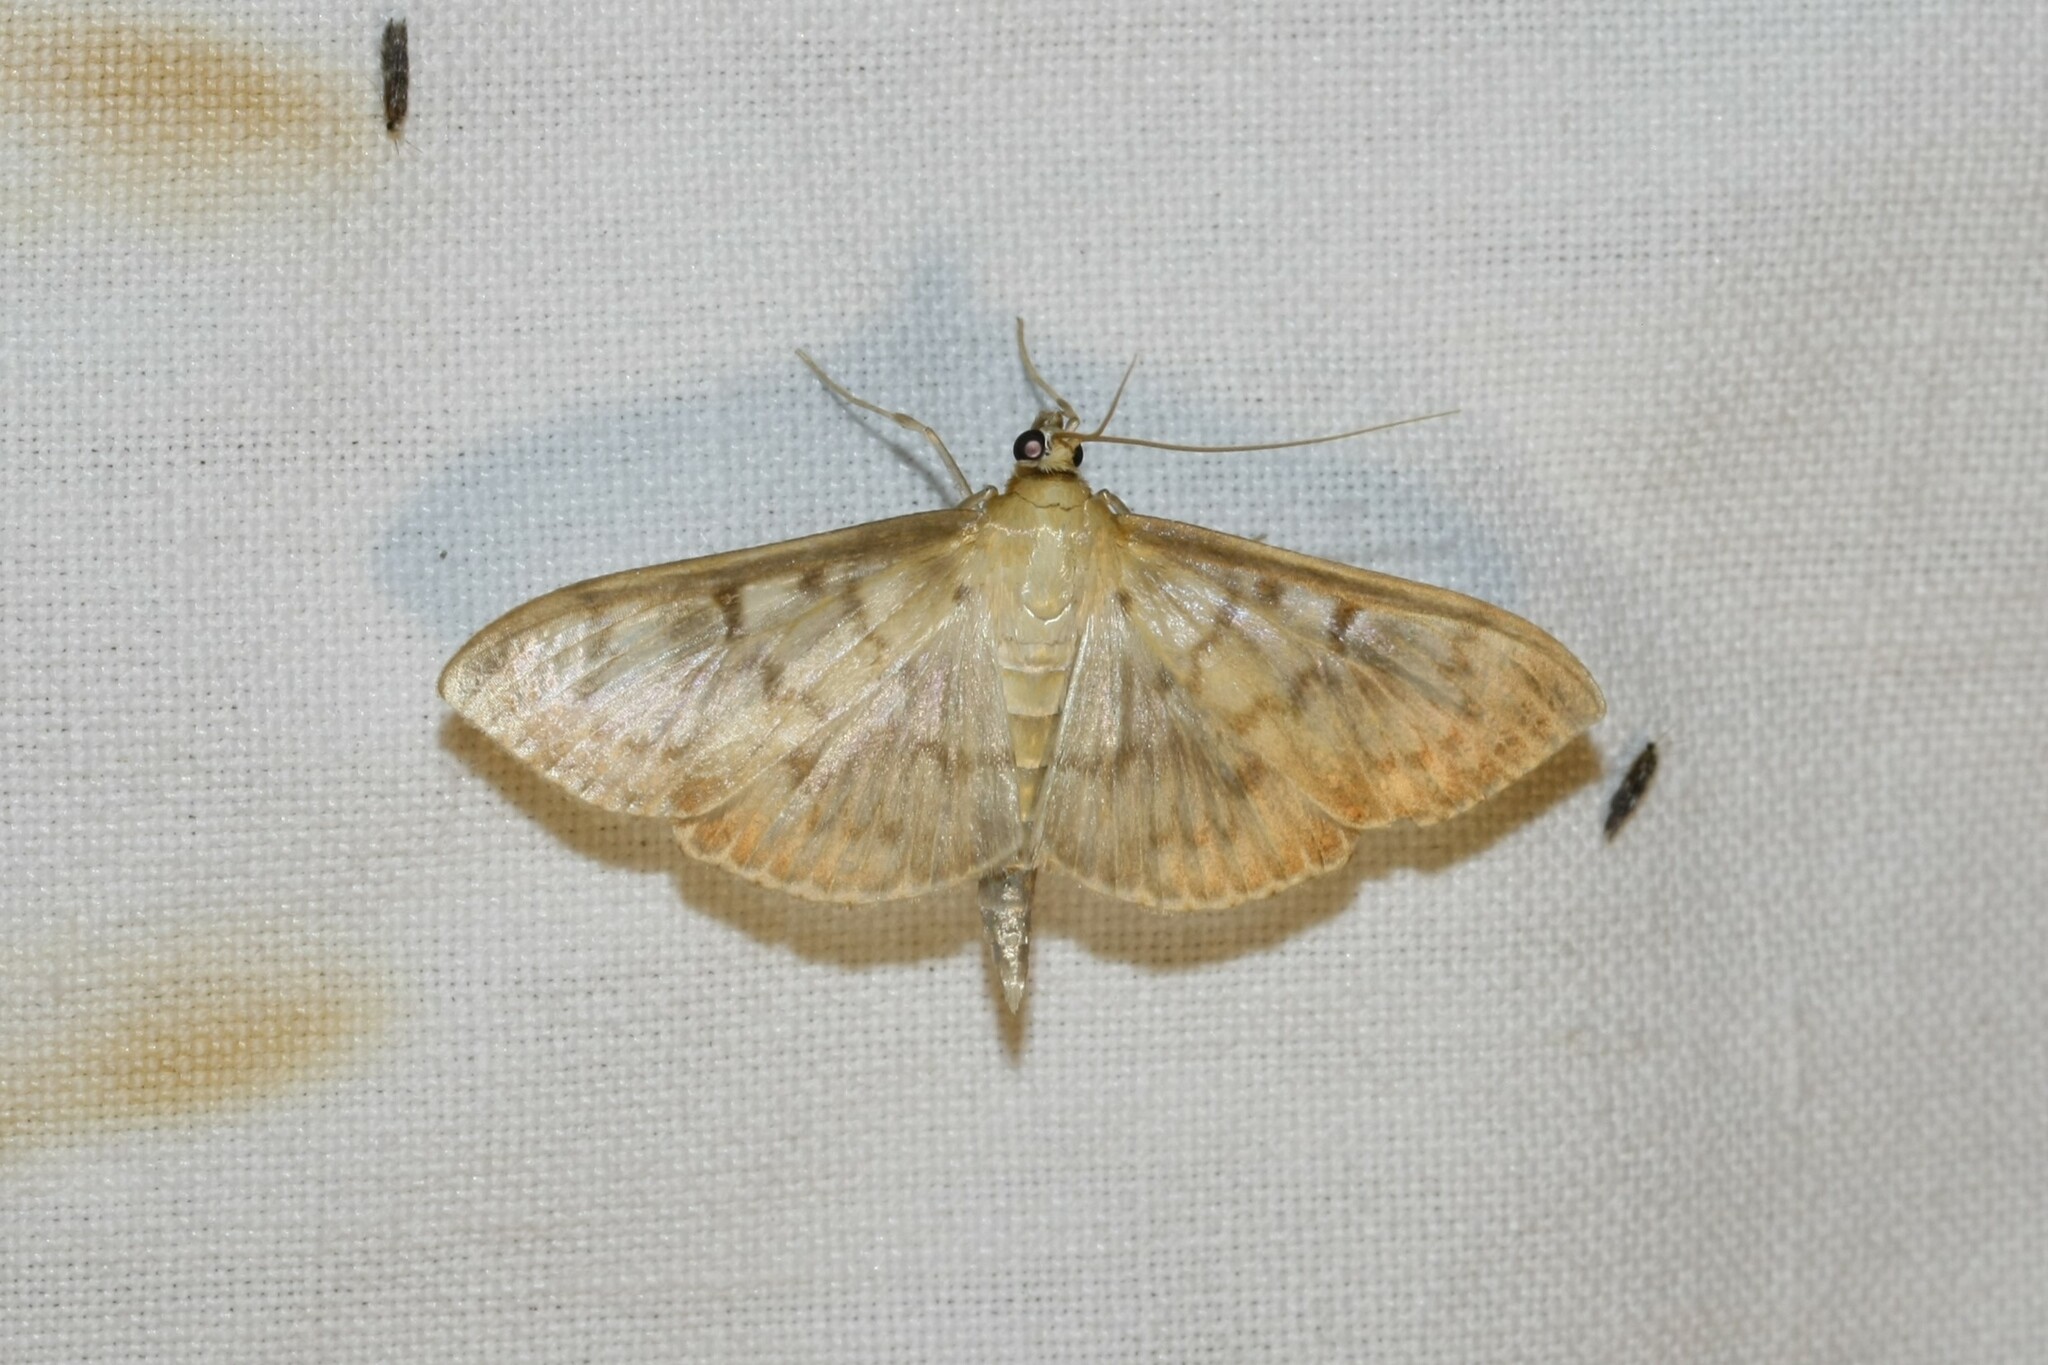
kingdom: Animalia
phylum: Arthropoda
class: Insecta
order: Lepidoptera
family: Crambidae
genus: Patania
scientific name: Patania ruralis
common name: Mother of pearl
